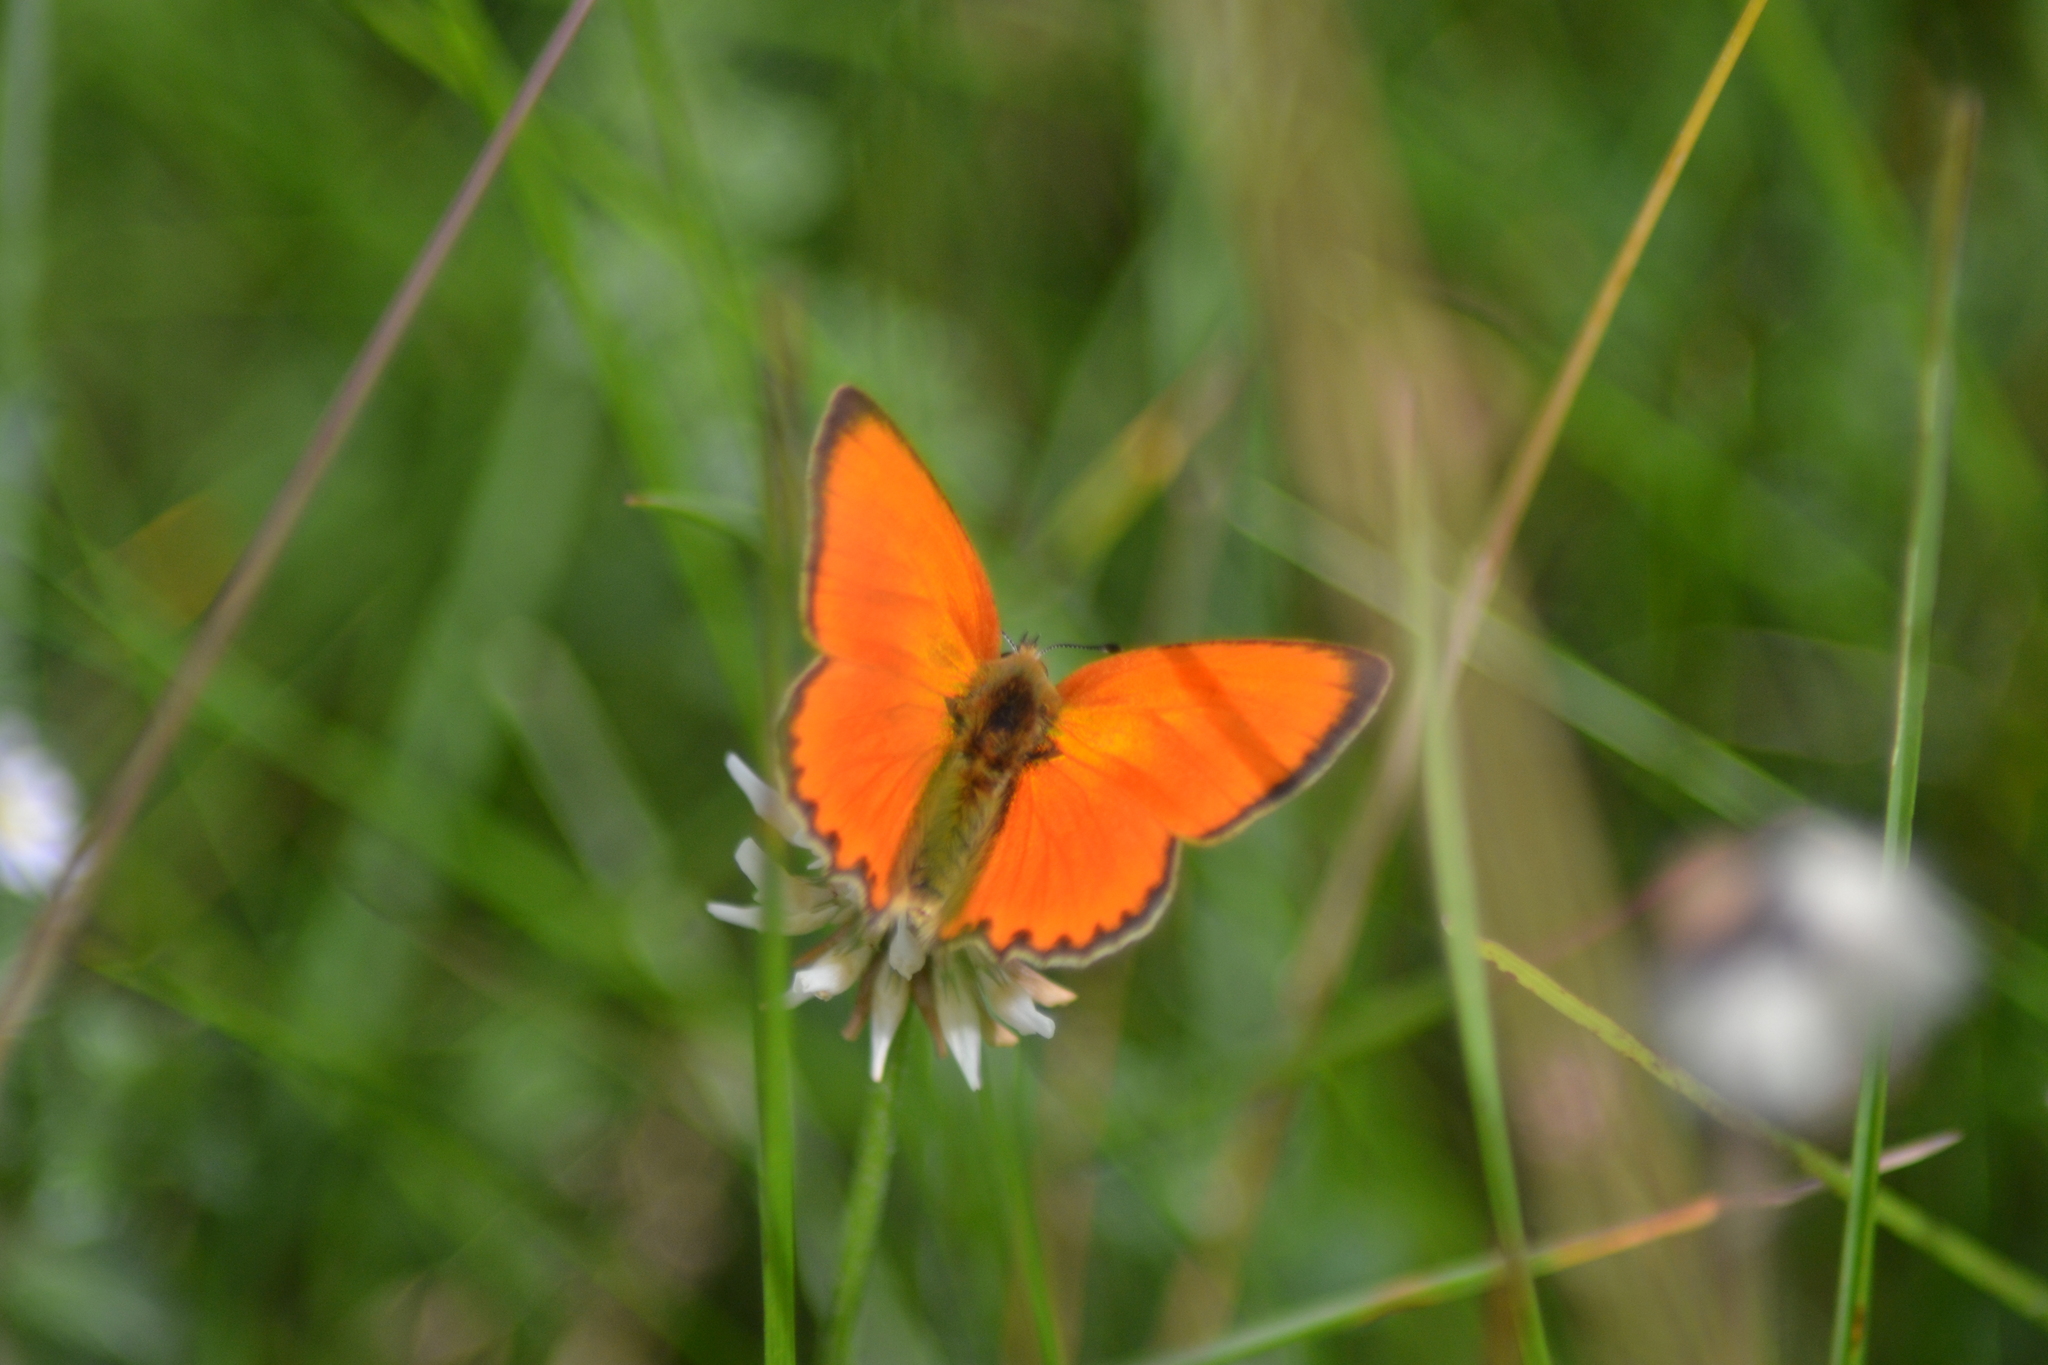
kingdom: Animalia
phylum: Arthropoda
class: Insecta
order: Lepidoptera
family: Lycaenidae
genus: Lycaena
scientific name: Lycaena virgaureae
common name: Scarce copper
